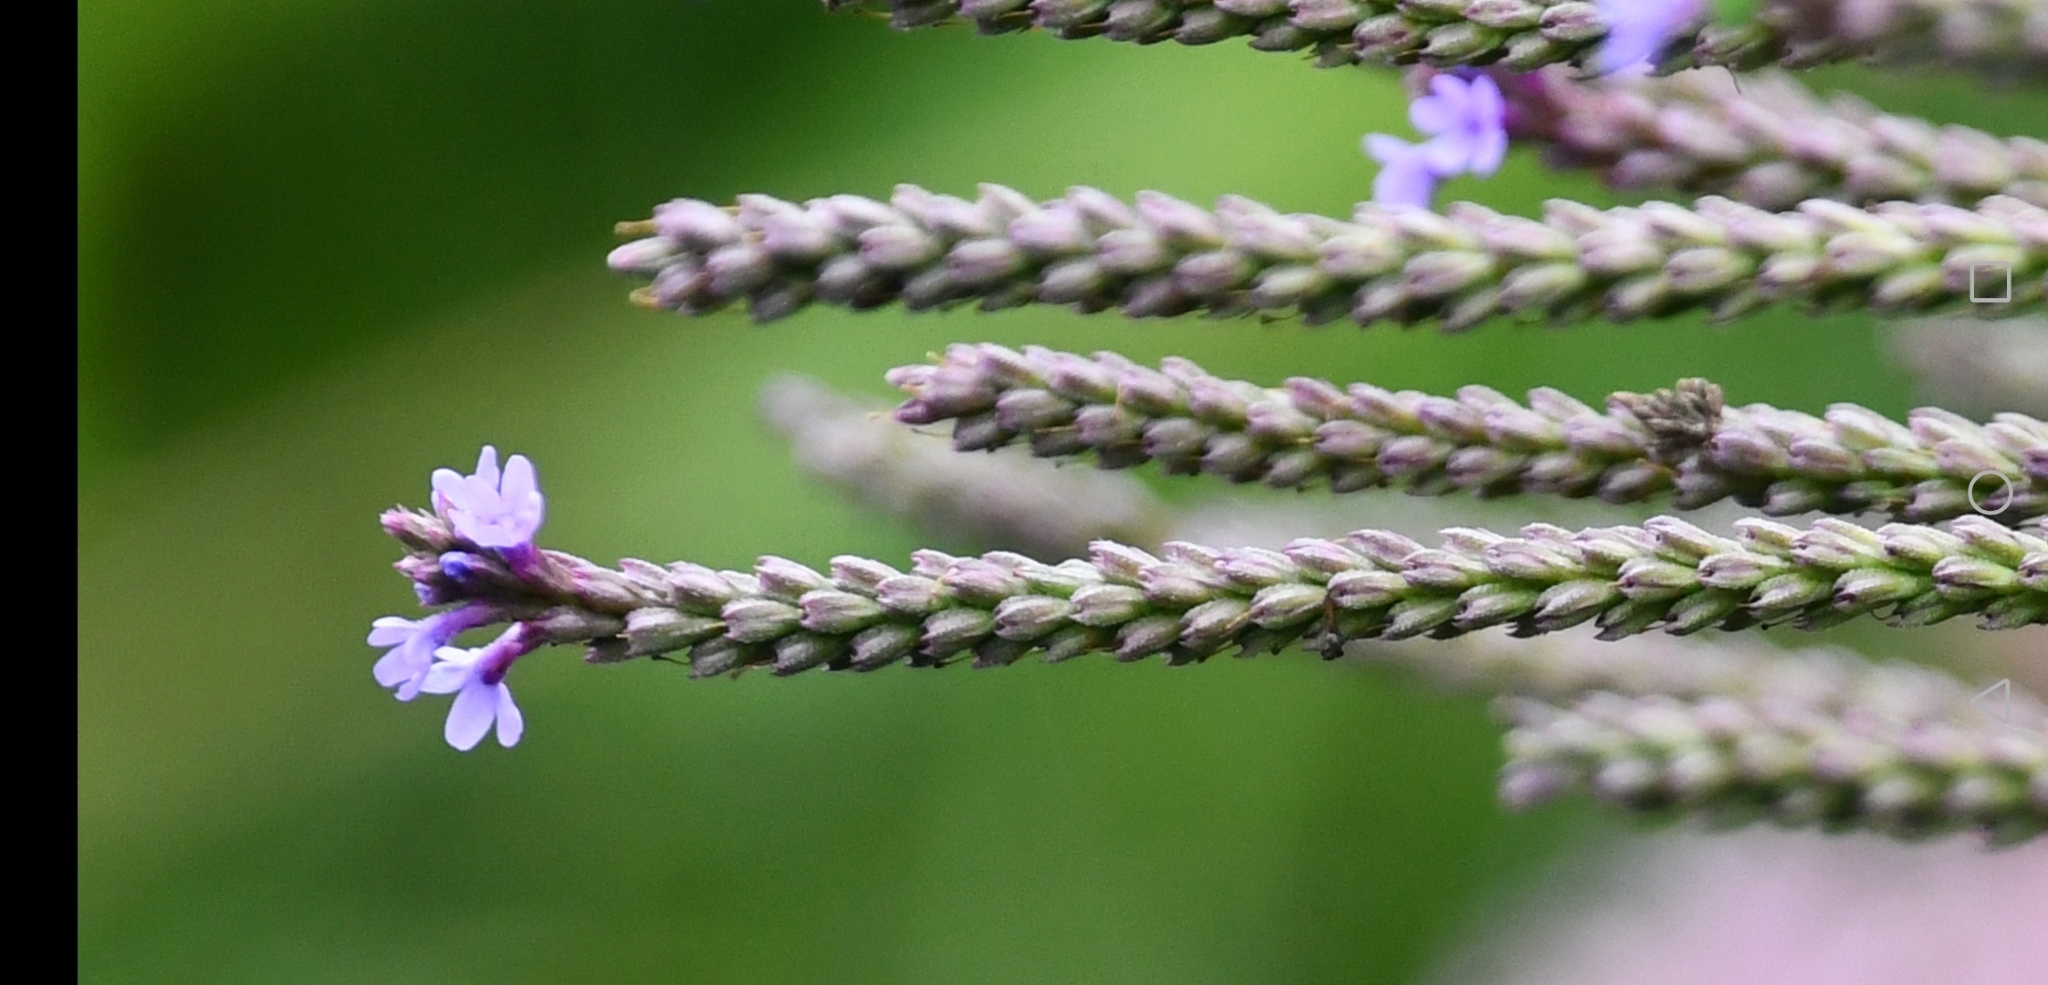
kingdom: Plantae
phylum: Tracheophyta
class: Magnoliopsida
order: Lamiales
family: Verbenaceae
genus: Verbena
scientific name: Verbena hastata
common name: American blue vervain
